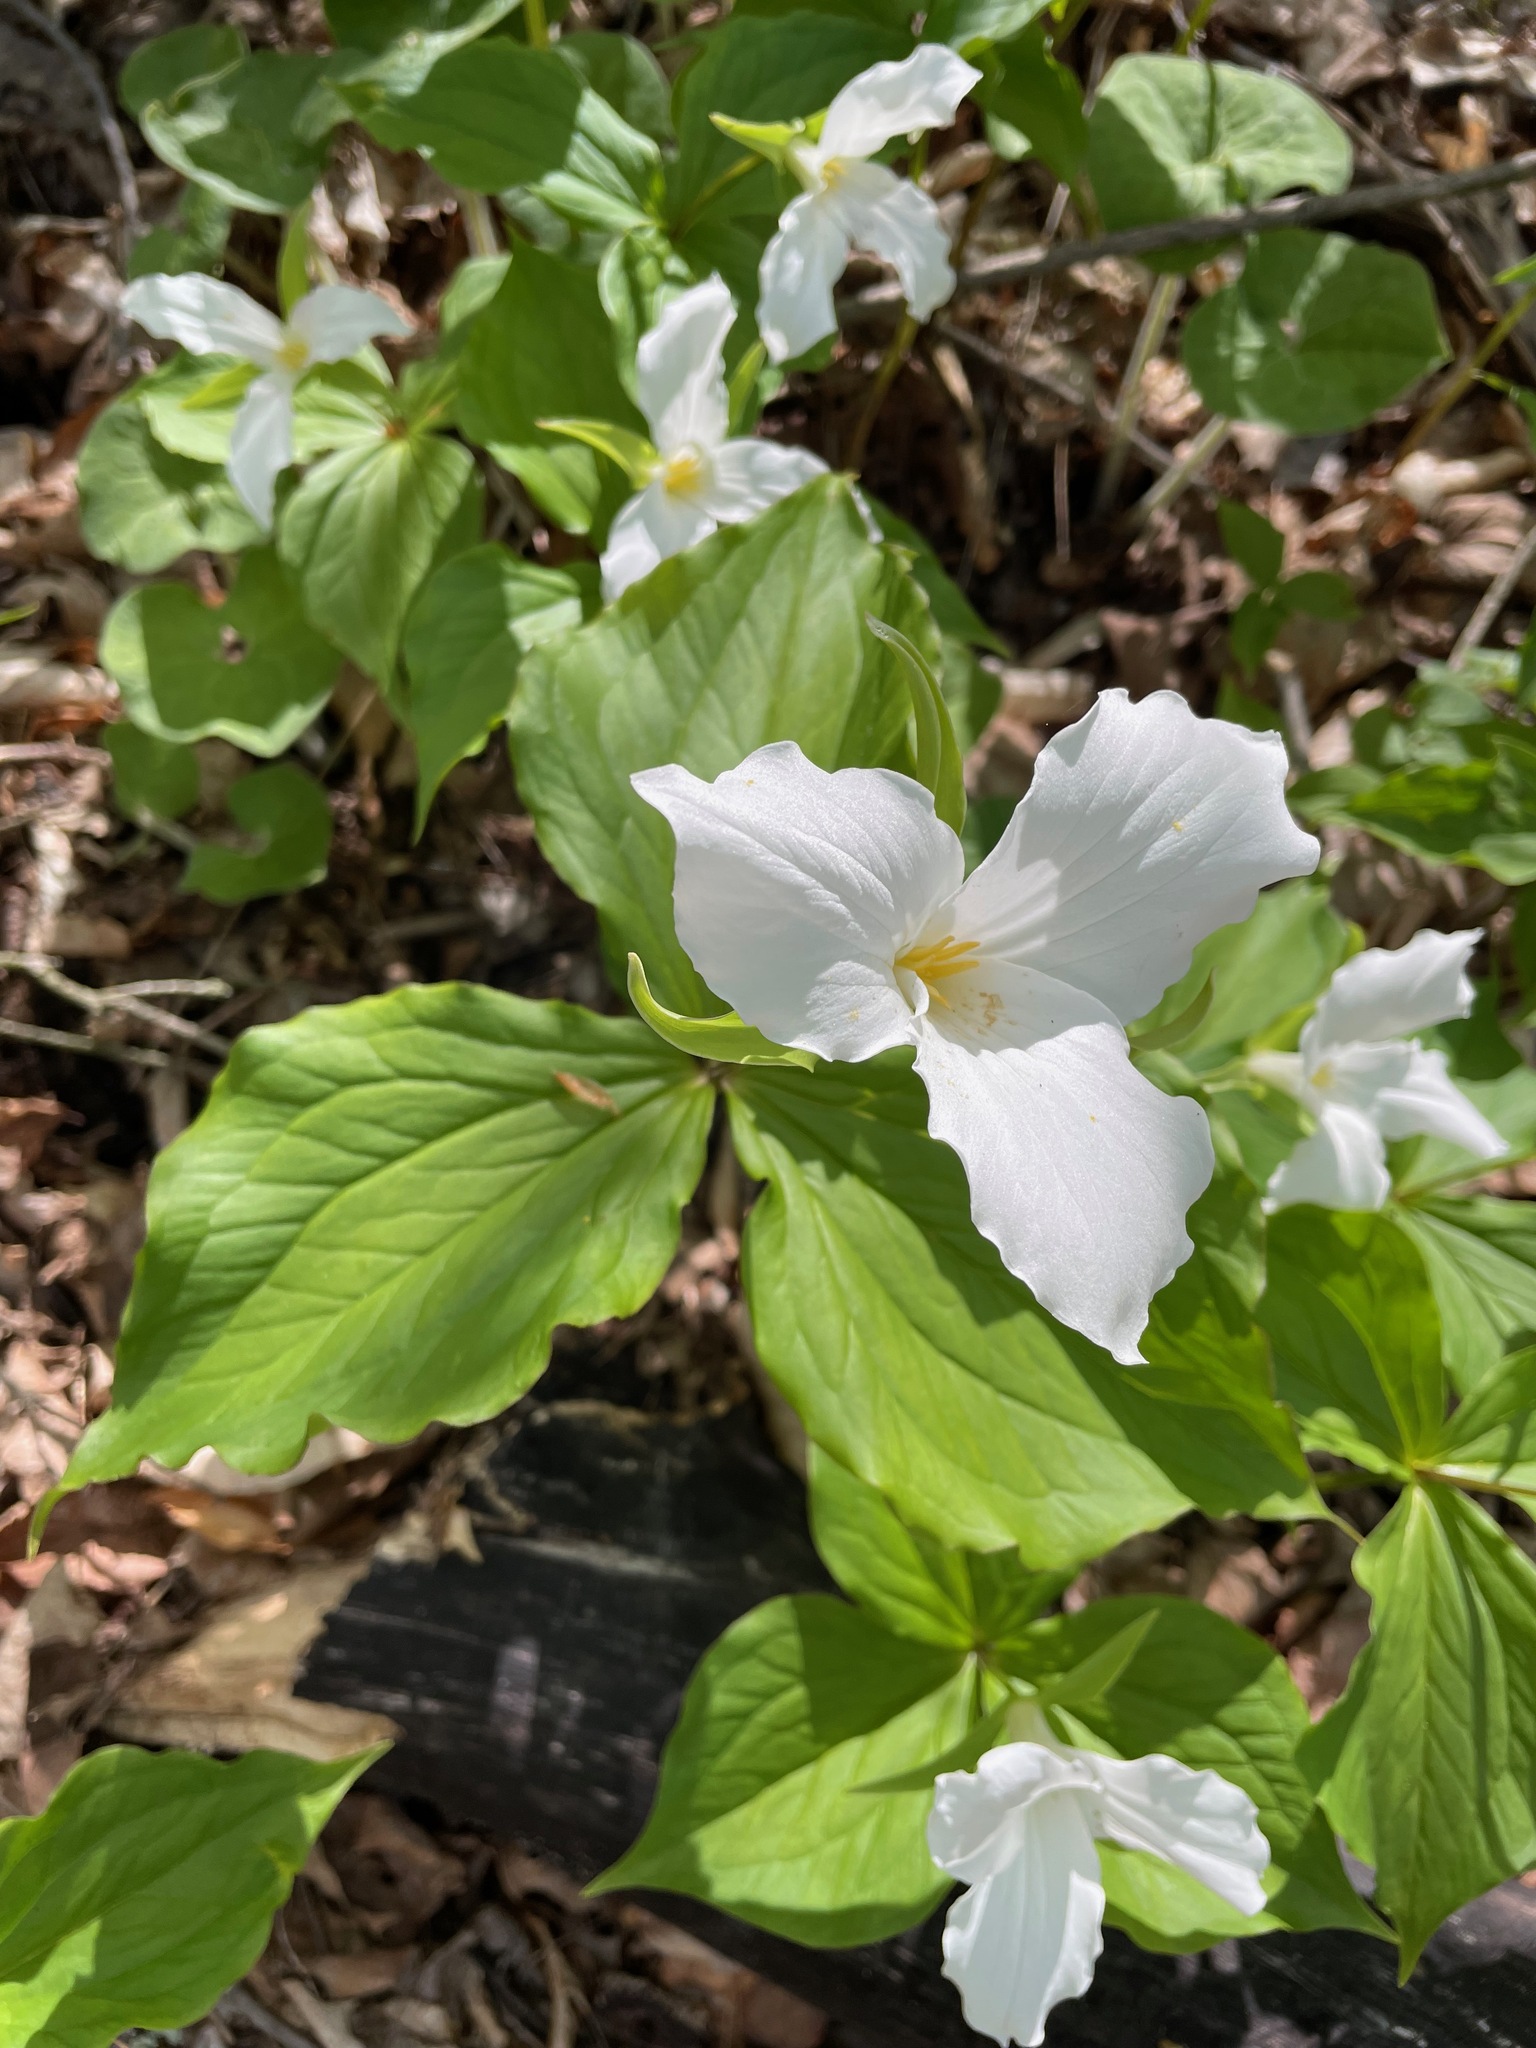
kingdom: Plantae
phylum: Tracheophyta
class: Liliopsida
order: Liliales
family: Melanthiaceae
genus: Trillium
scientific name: Trillium grandiflorum
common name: Great white trillium
